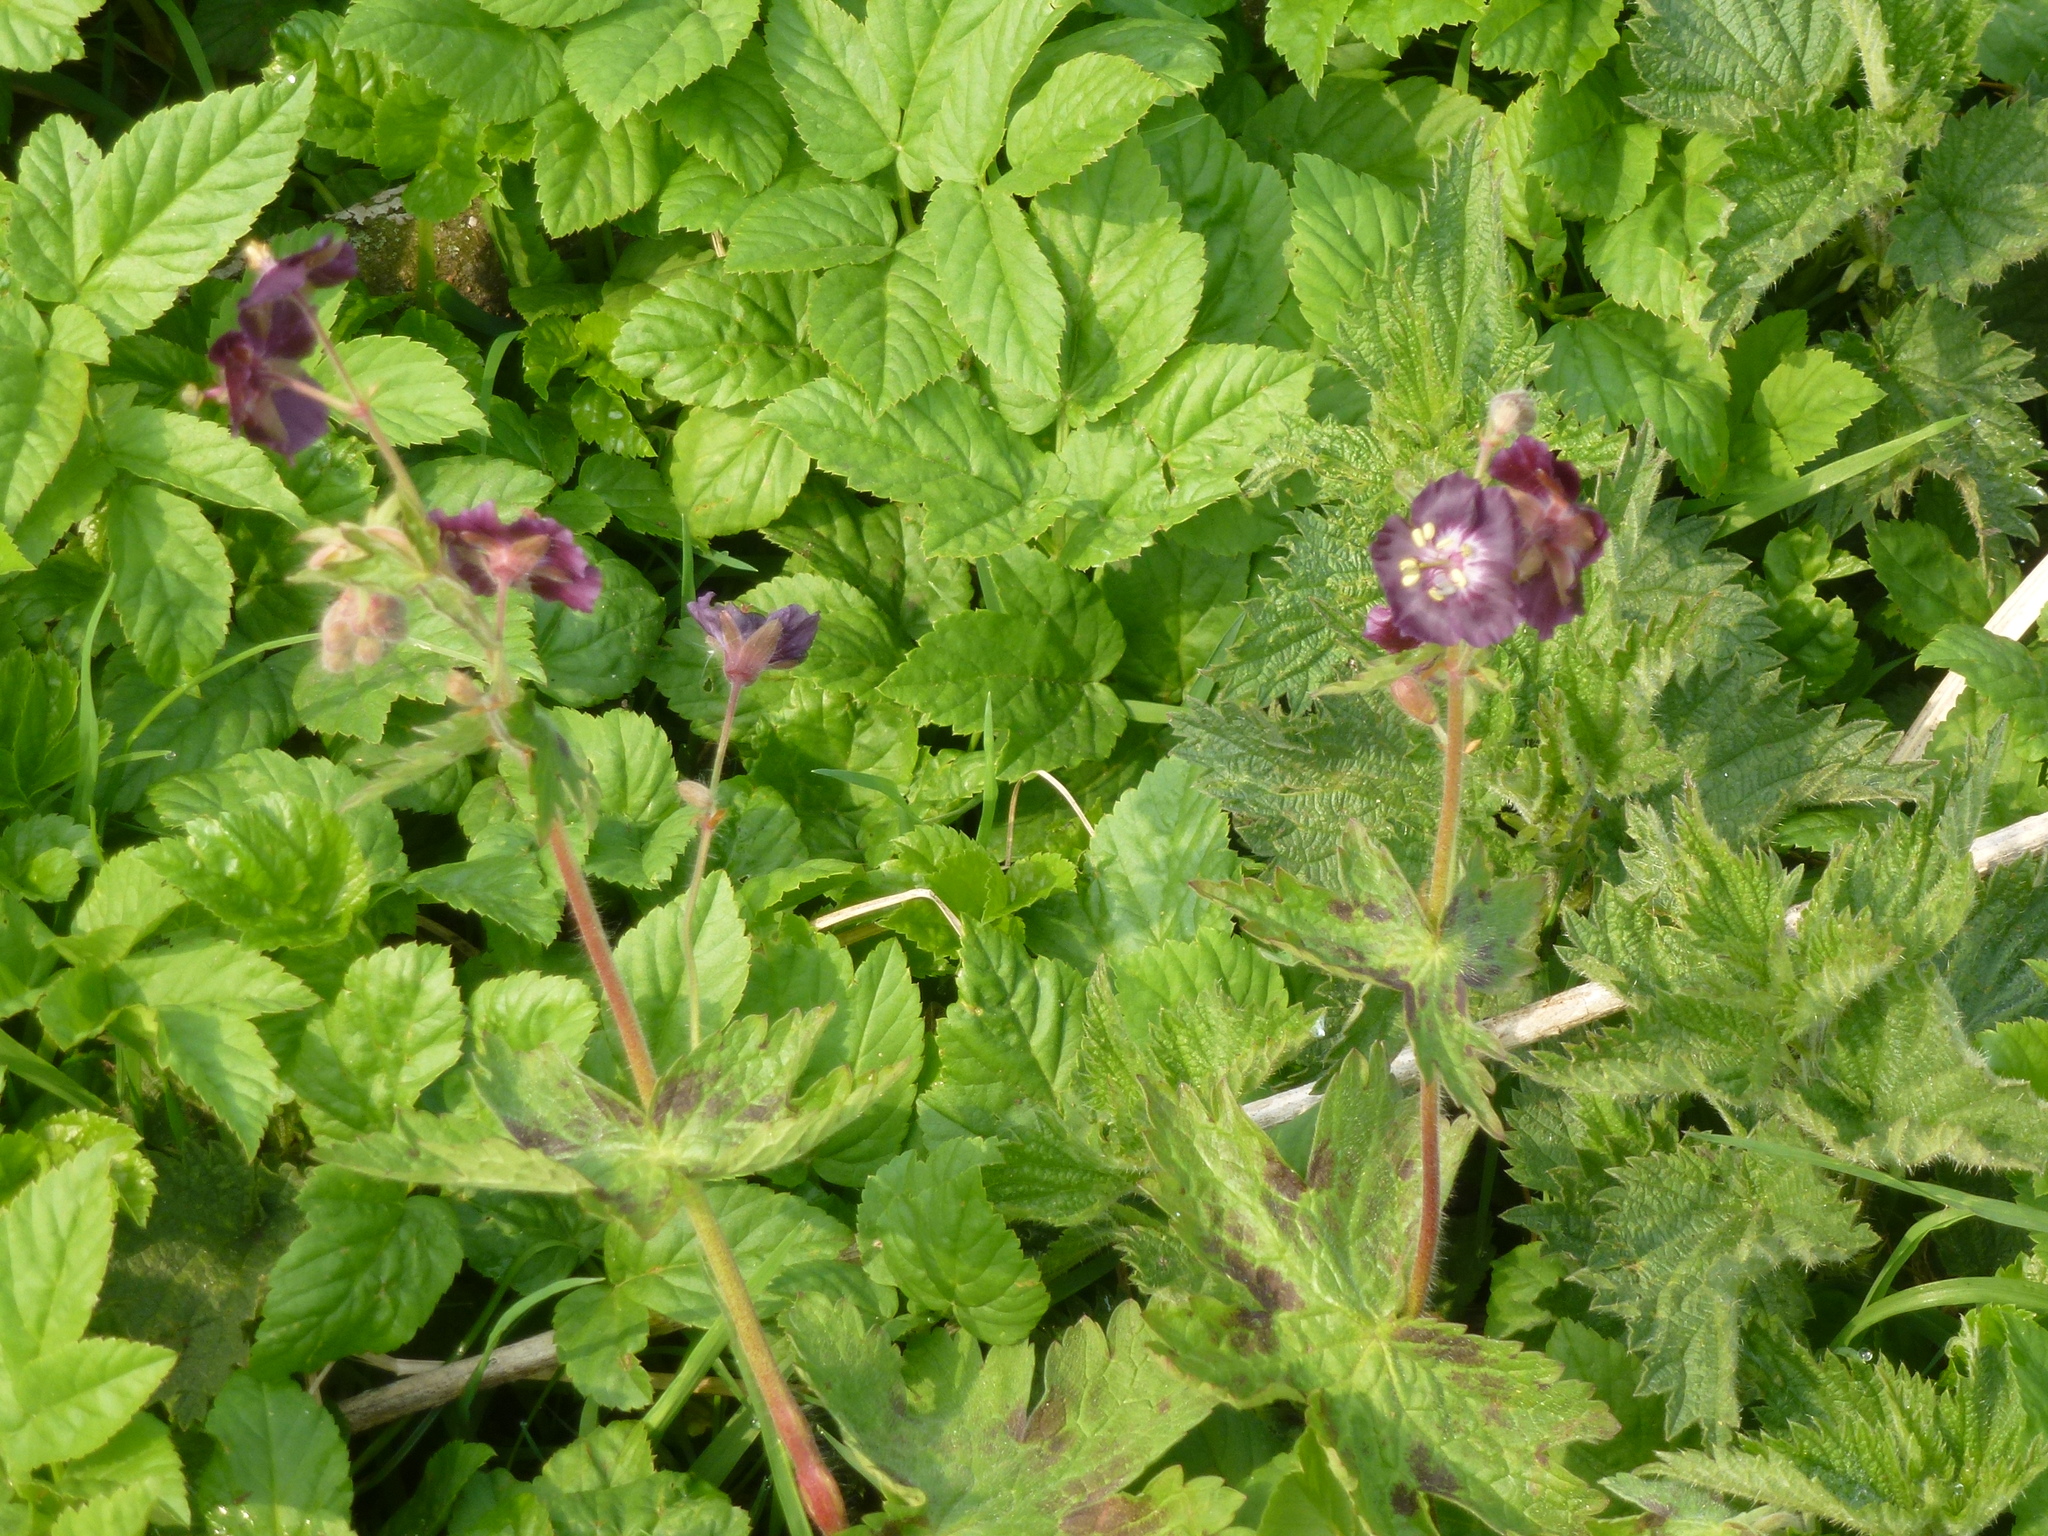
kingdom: Plantae
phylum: Tracheophyta
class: Magnoliopsida
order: Geraniales
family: Geraniaceae
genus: Geranium
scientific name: Geranium phaeum
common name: Dusky crane's-bill
